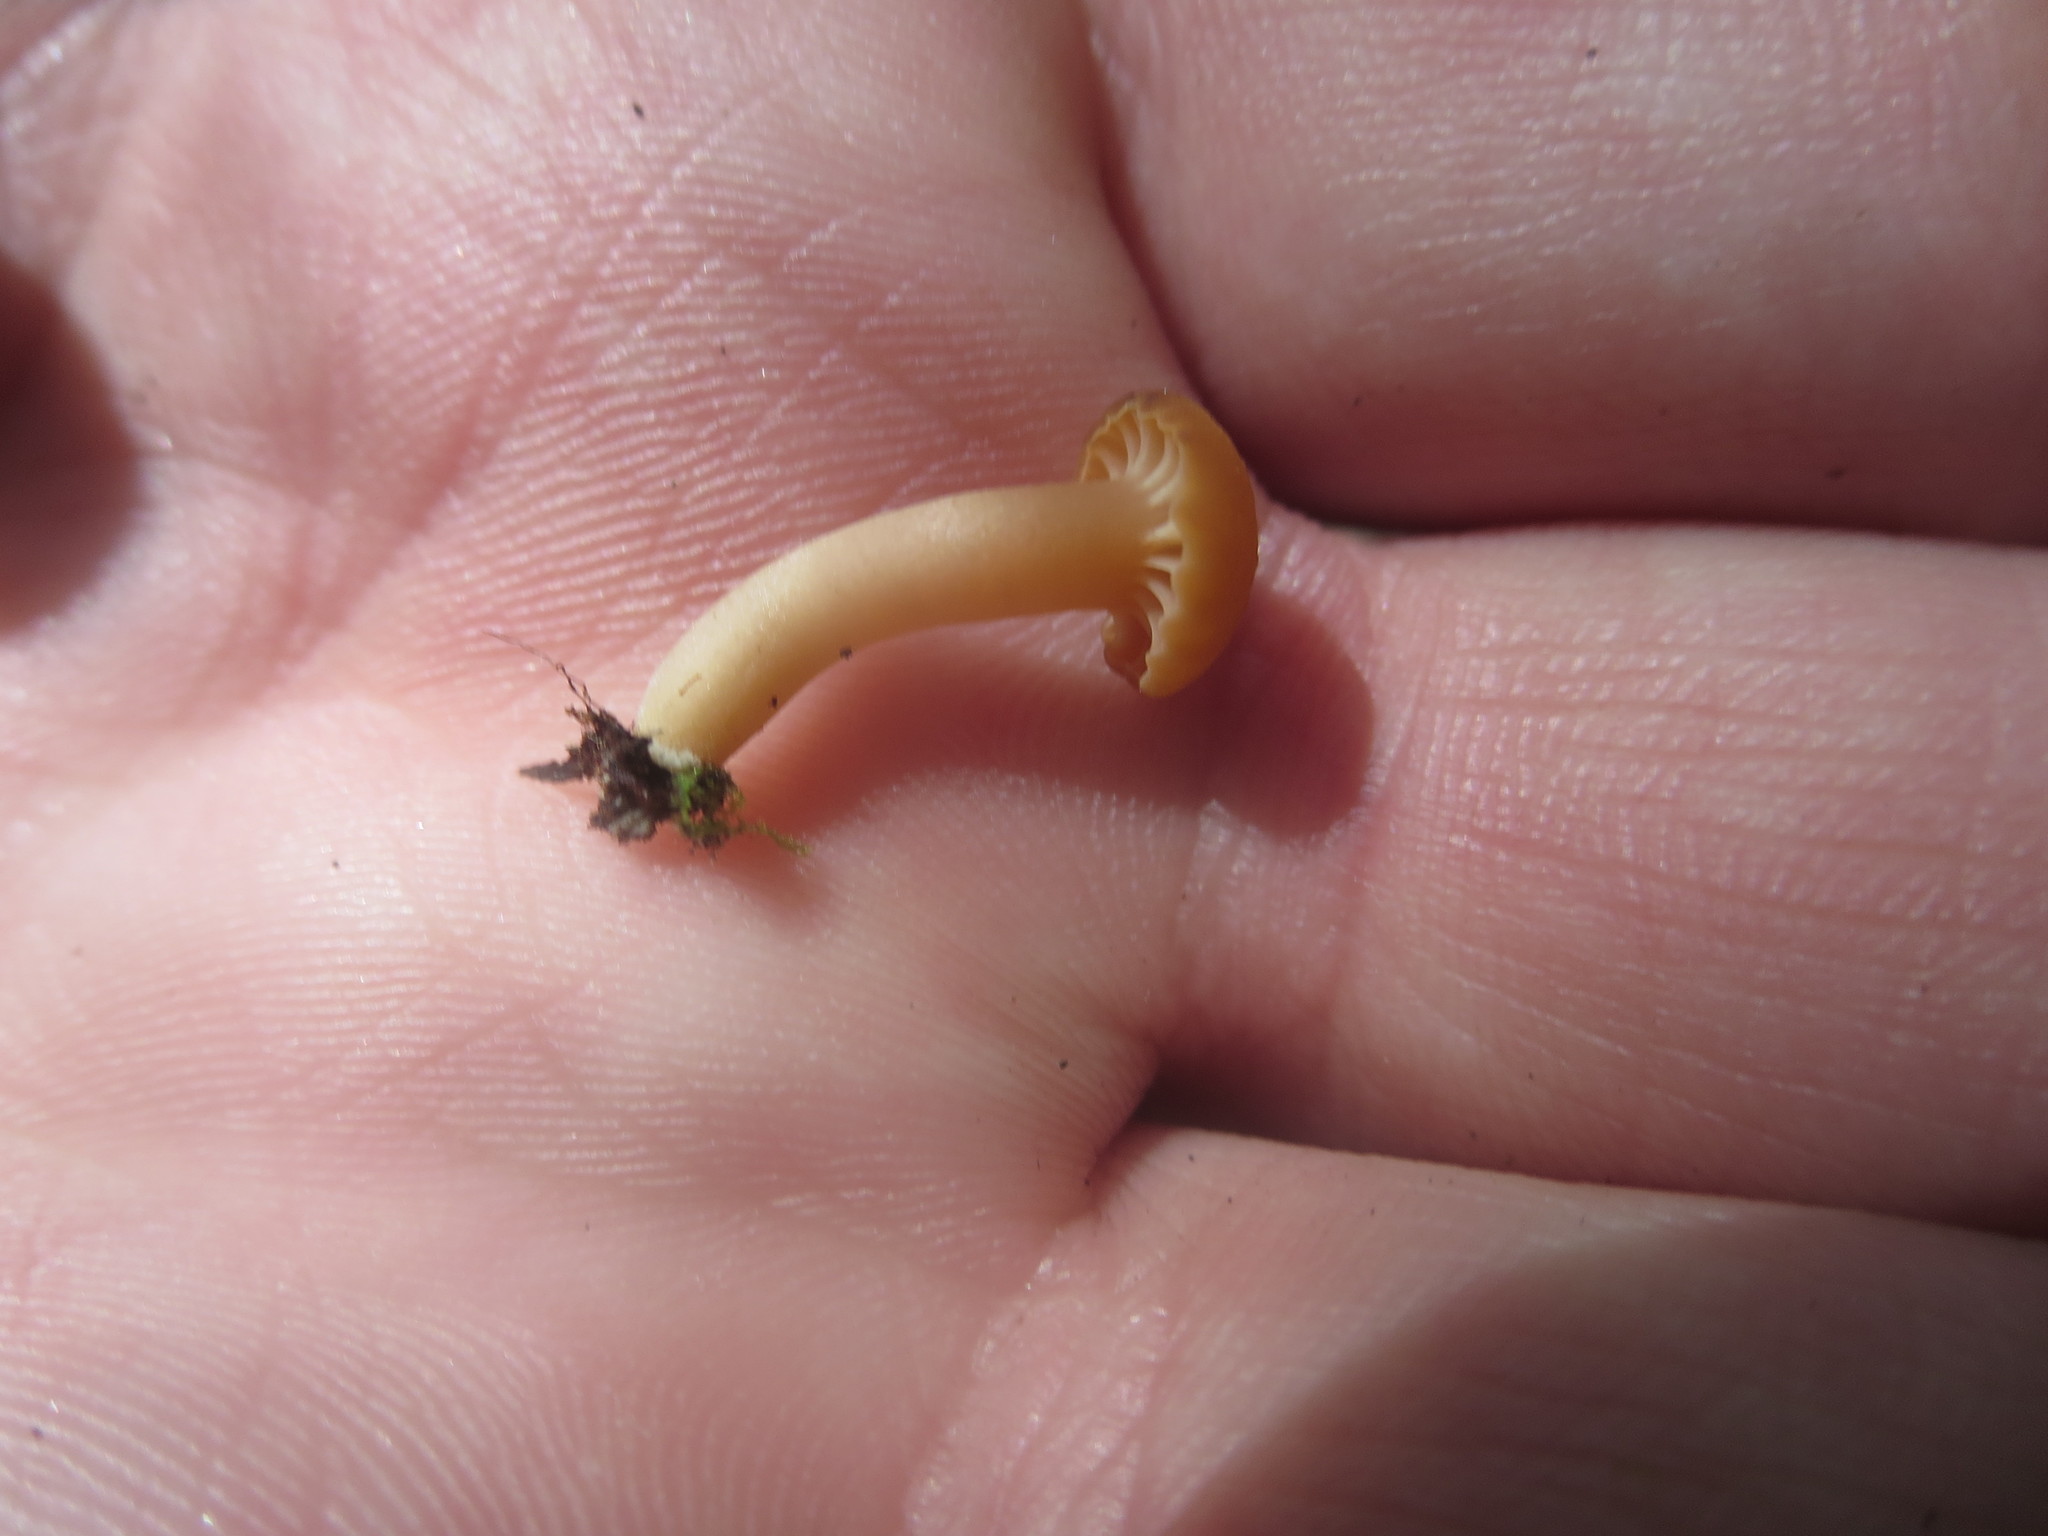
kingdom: Fungi
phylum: Basidiomycota
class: Agaricomycetes
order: Agaricales
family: Clavariaceae
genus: Hodophilus
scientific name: Hodophilus hymenocephalus
